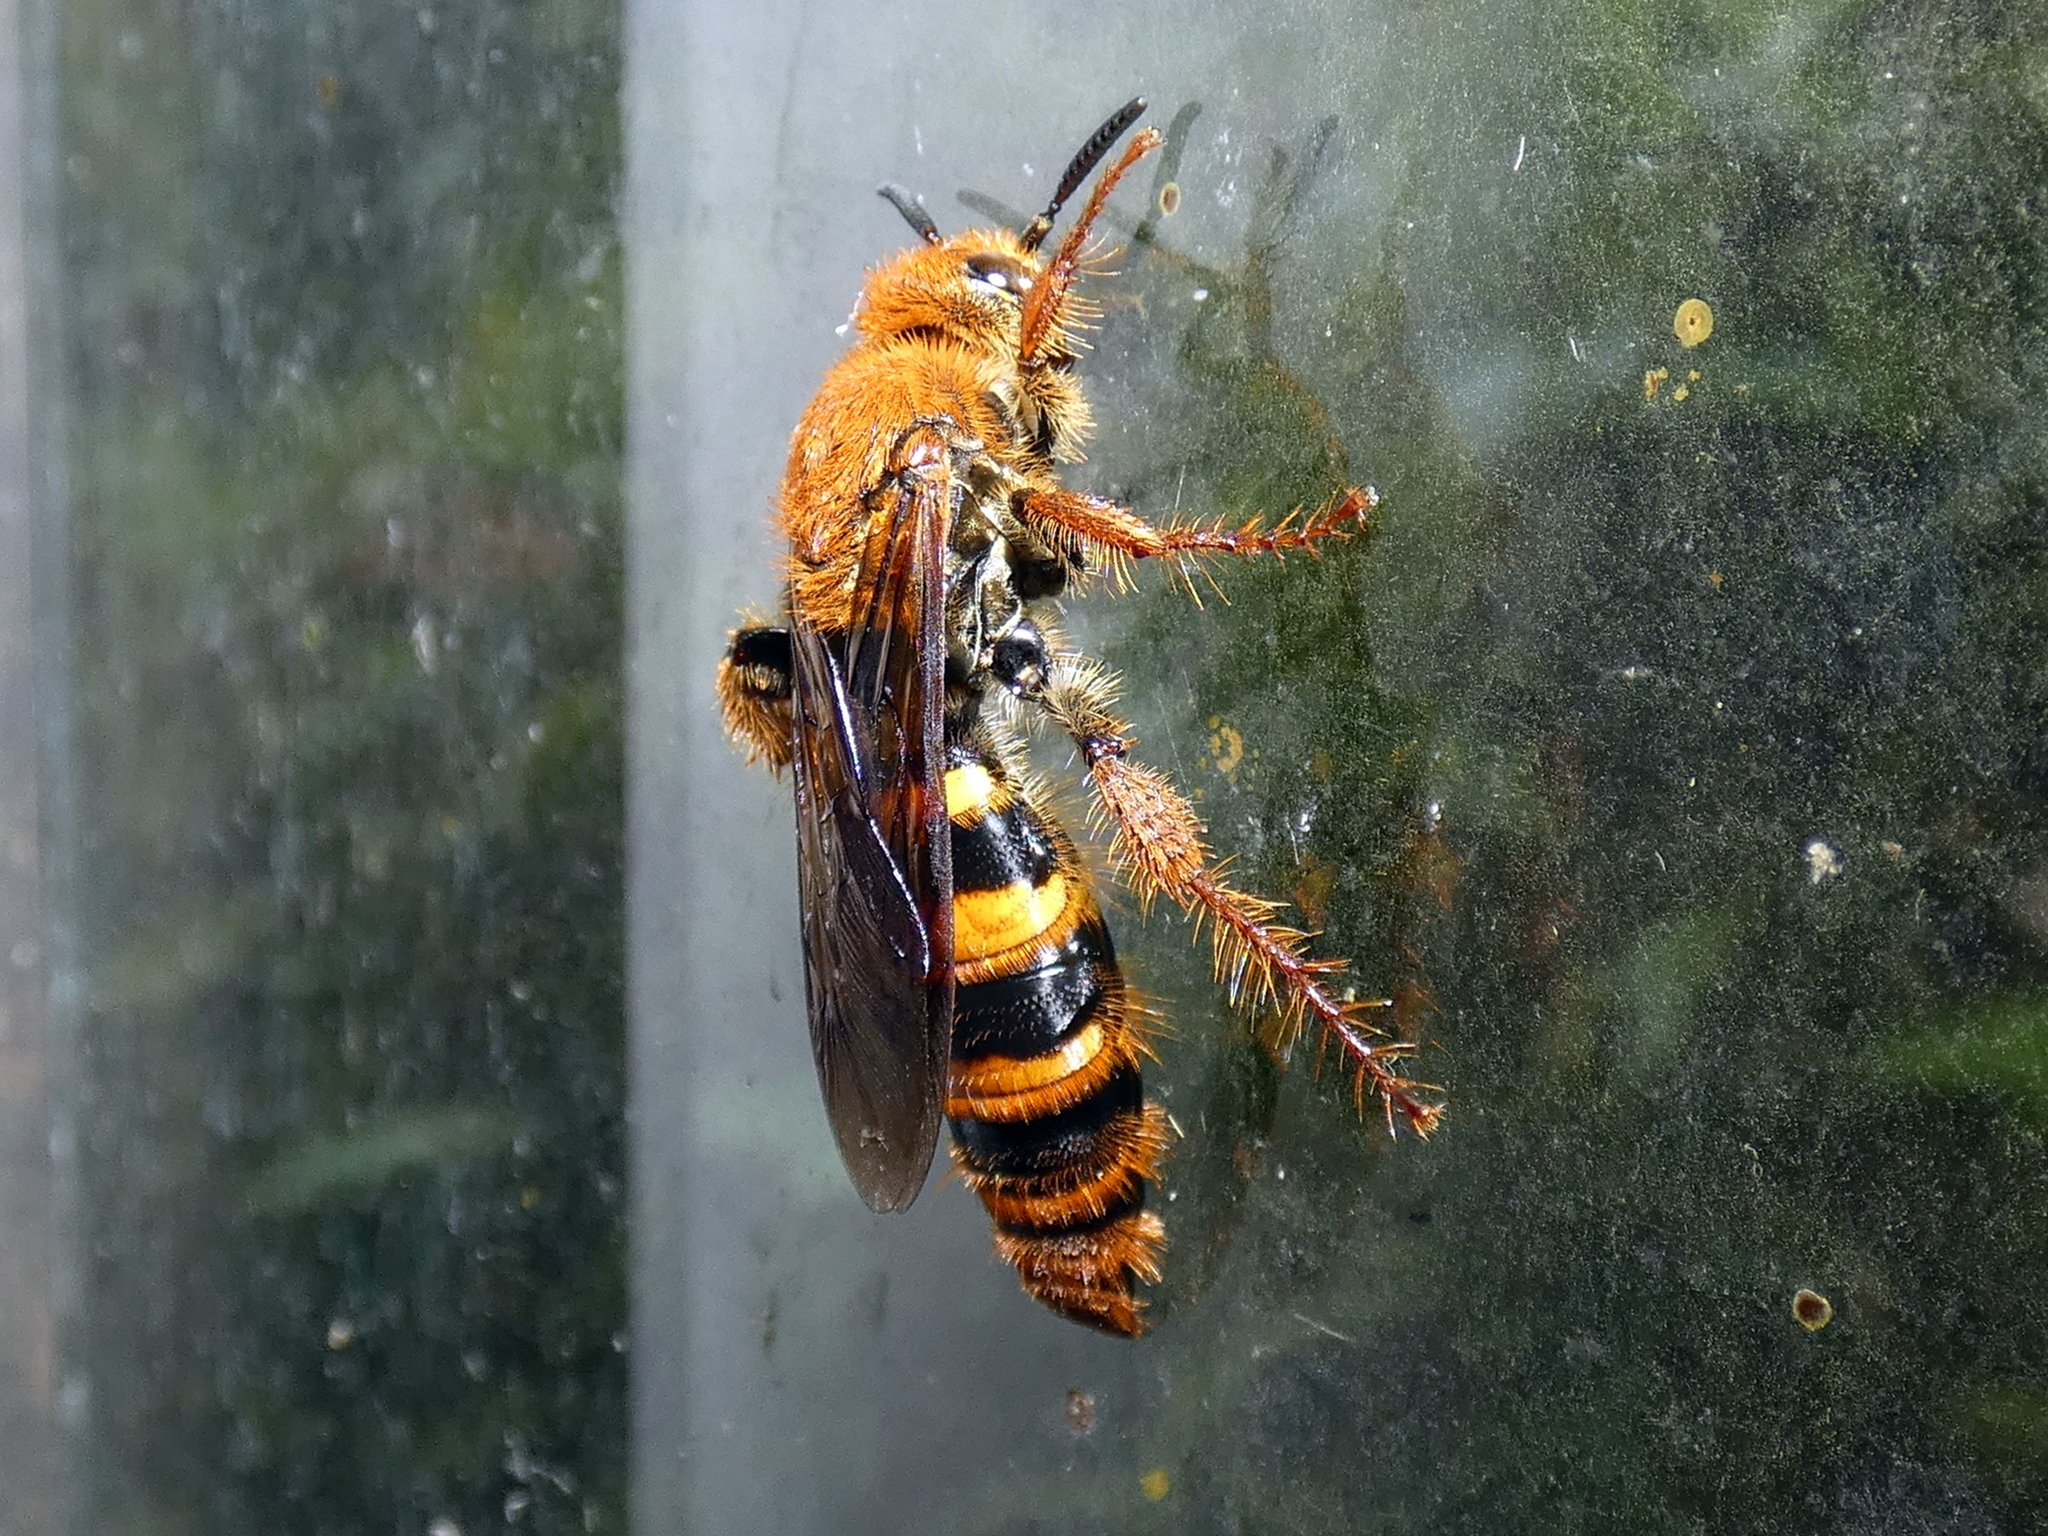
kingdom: Animalia
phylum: Arthropoda
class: Insecta
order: Hymenoptera
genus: Laevicampsomeris
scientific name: Laevicampsomeris
